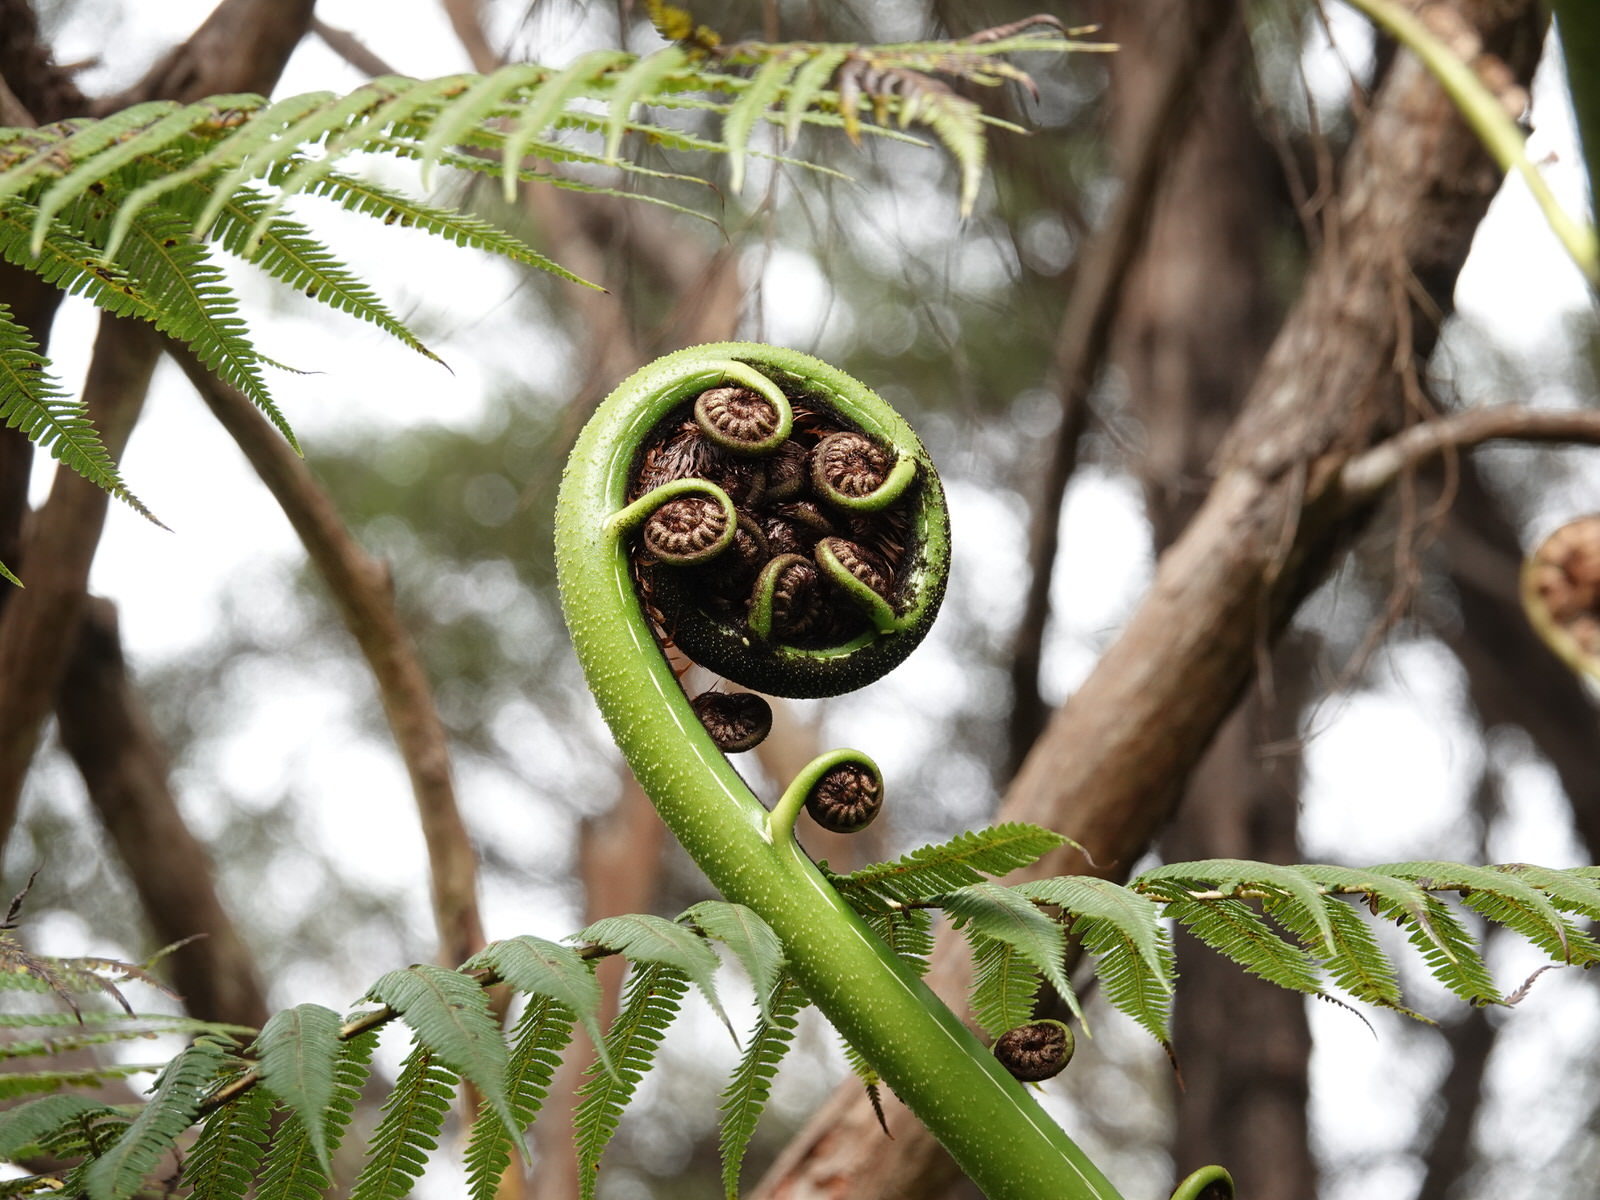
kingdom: Plantae
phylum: Tracheophyta
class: Polypodiopsida
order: Cyatheales
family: Cyatheaceae
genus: Sphaeropteris
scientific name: Sphaeropteris medullaris
